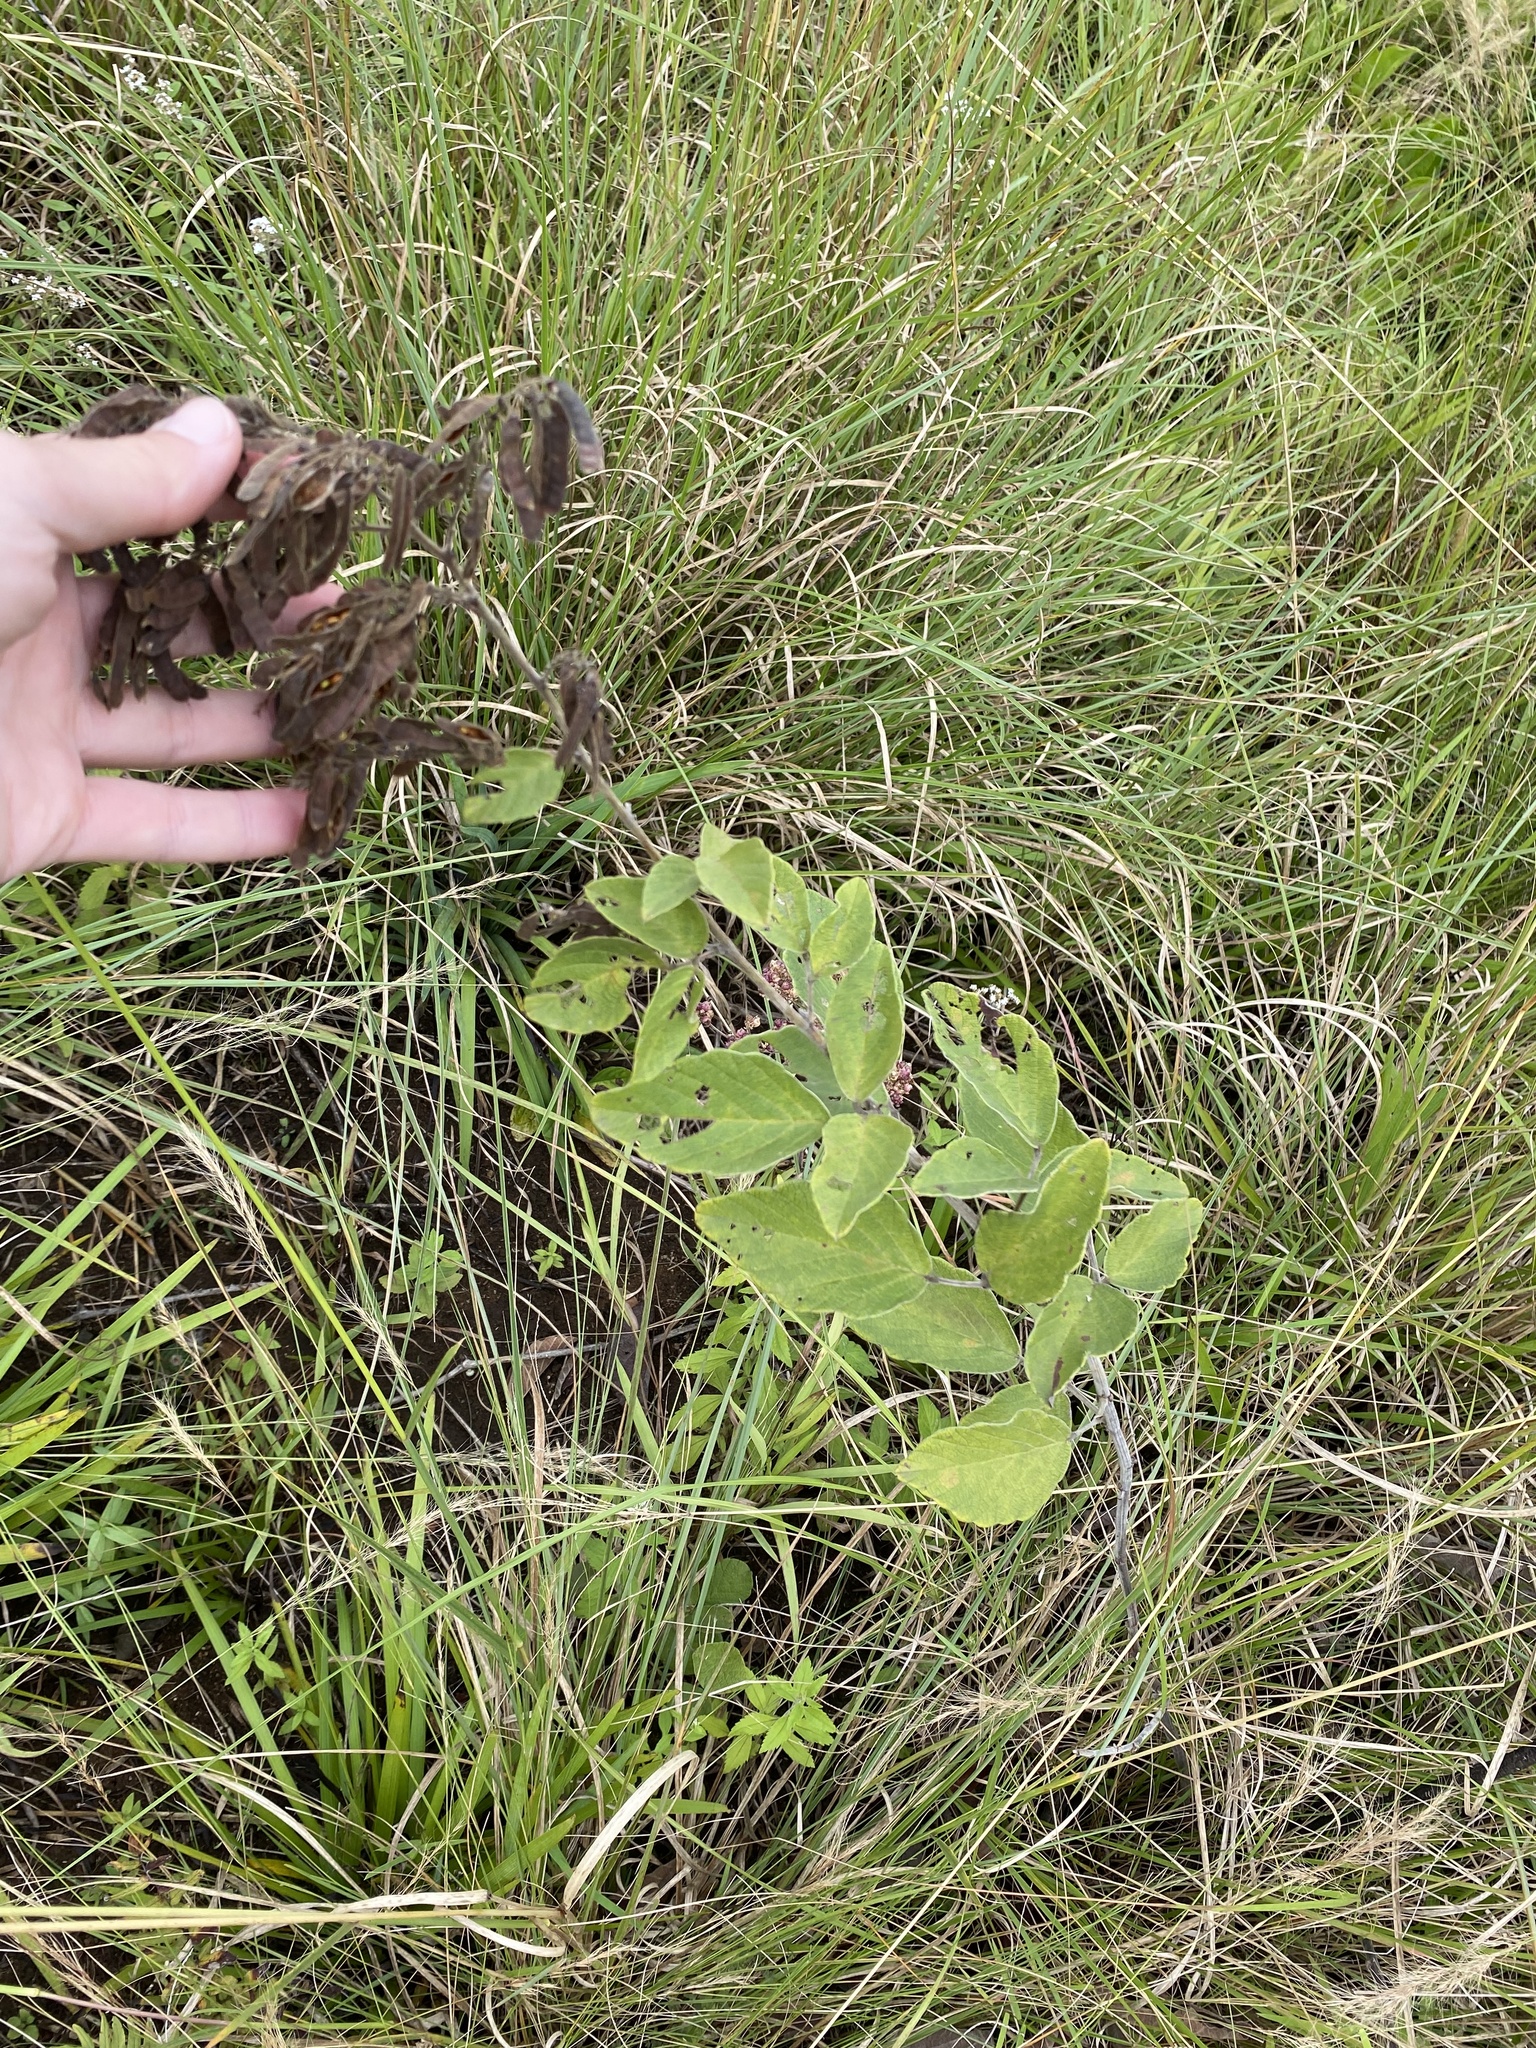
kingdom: Plantae
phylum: Tracheophyta
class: Magnoliopsida
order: Fabales
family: Fabaceae
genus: Pseudarthria
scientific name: Pseudarthria hookeri
